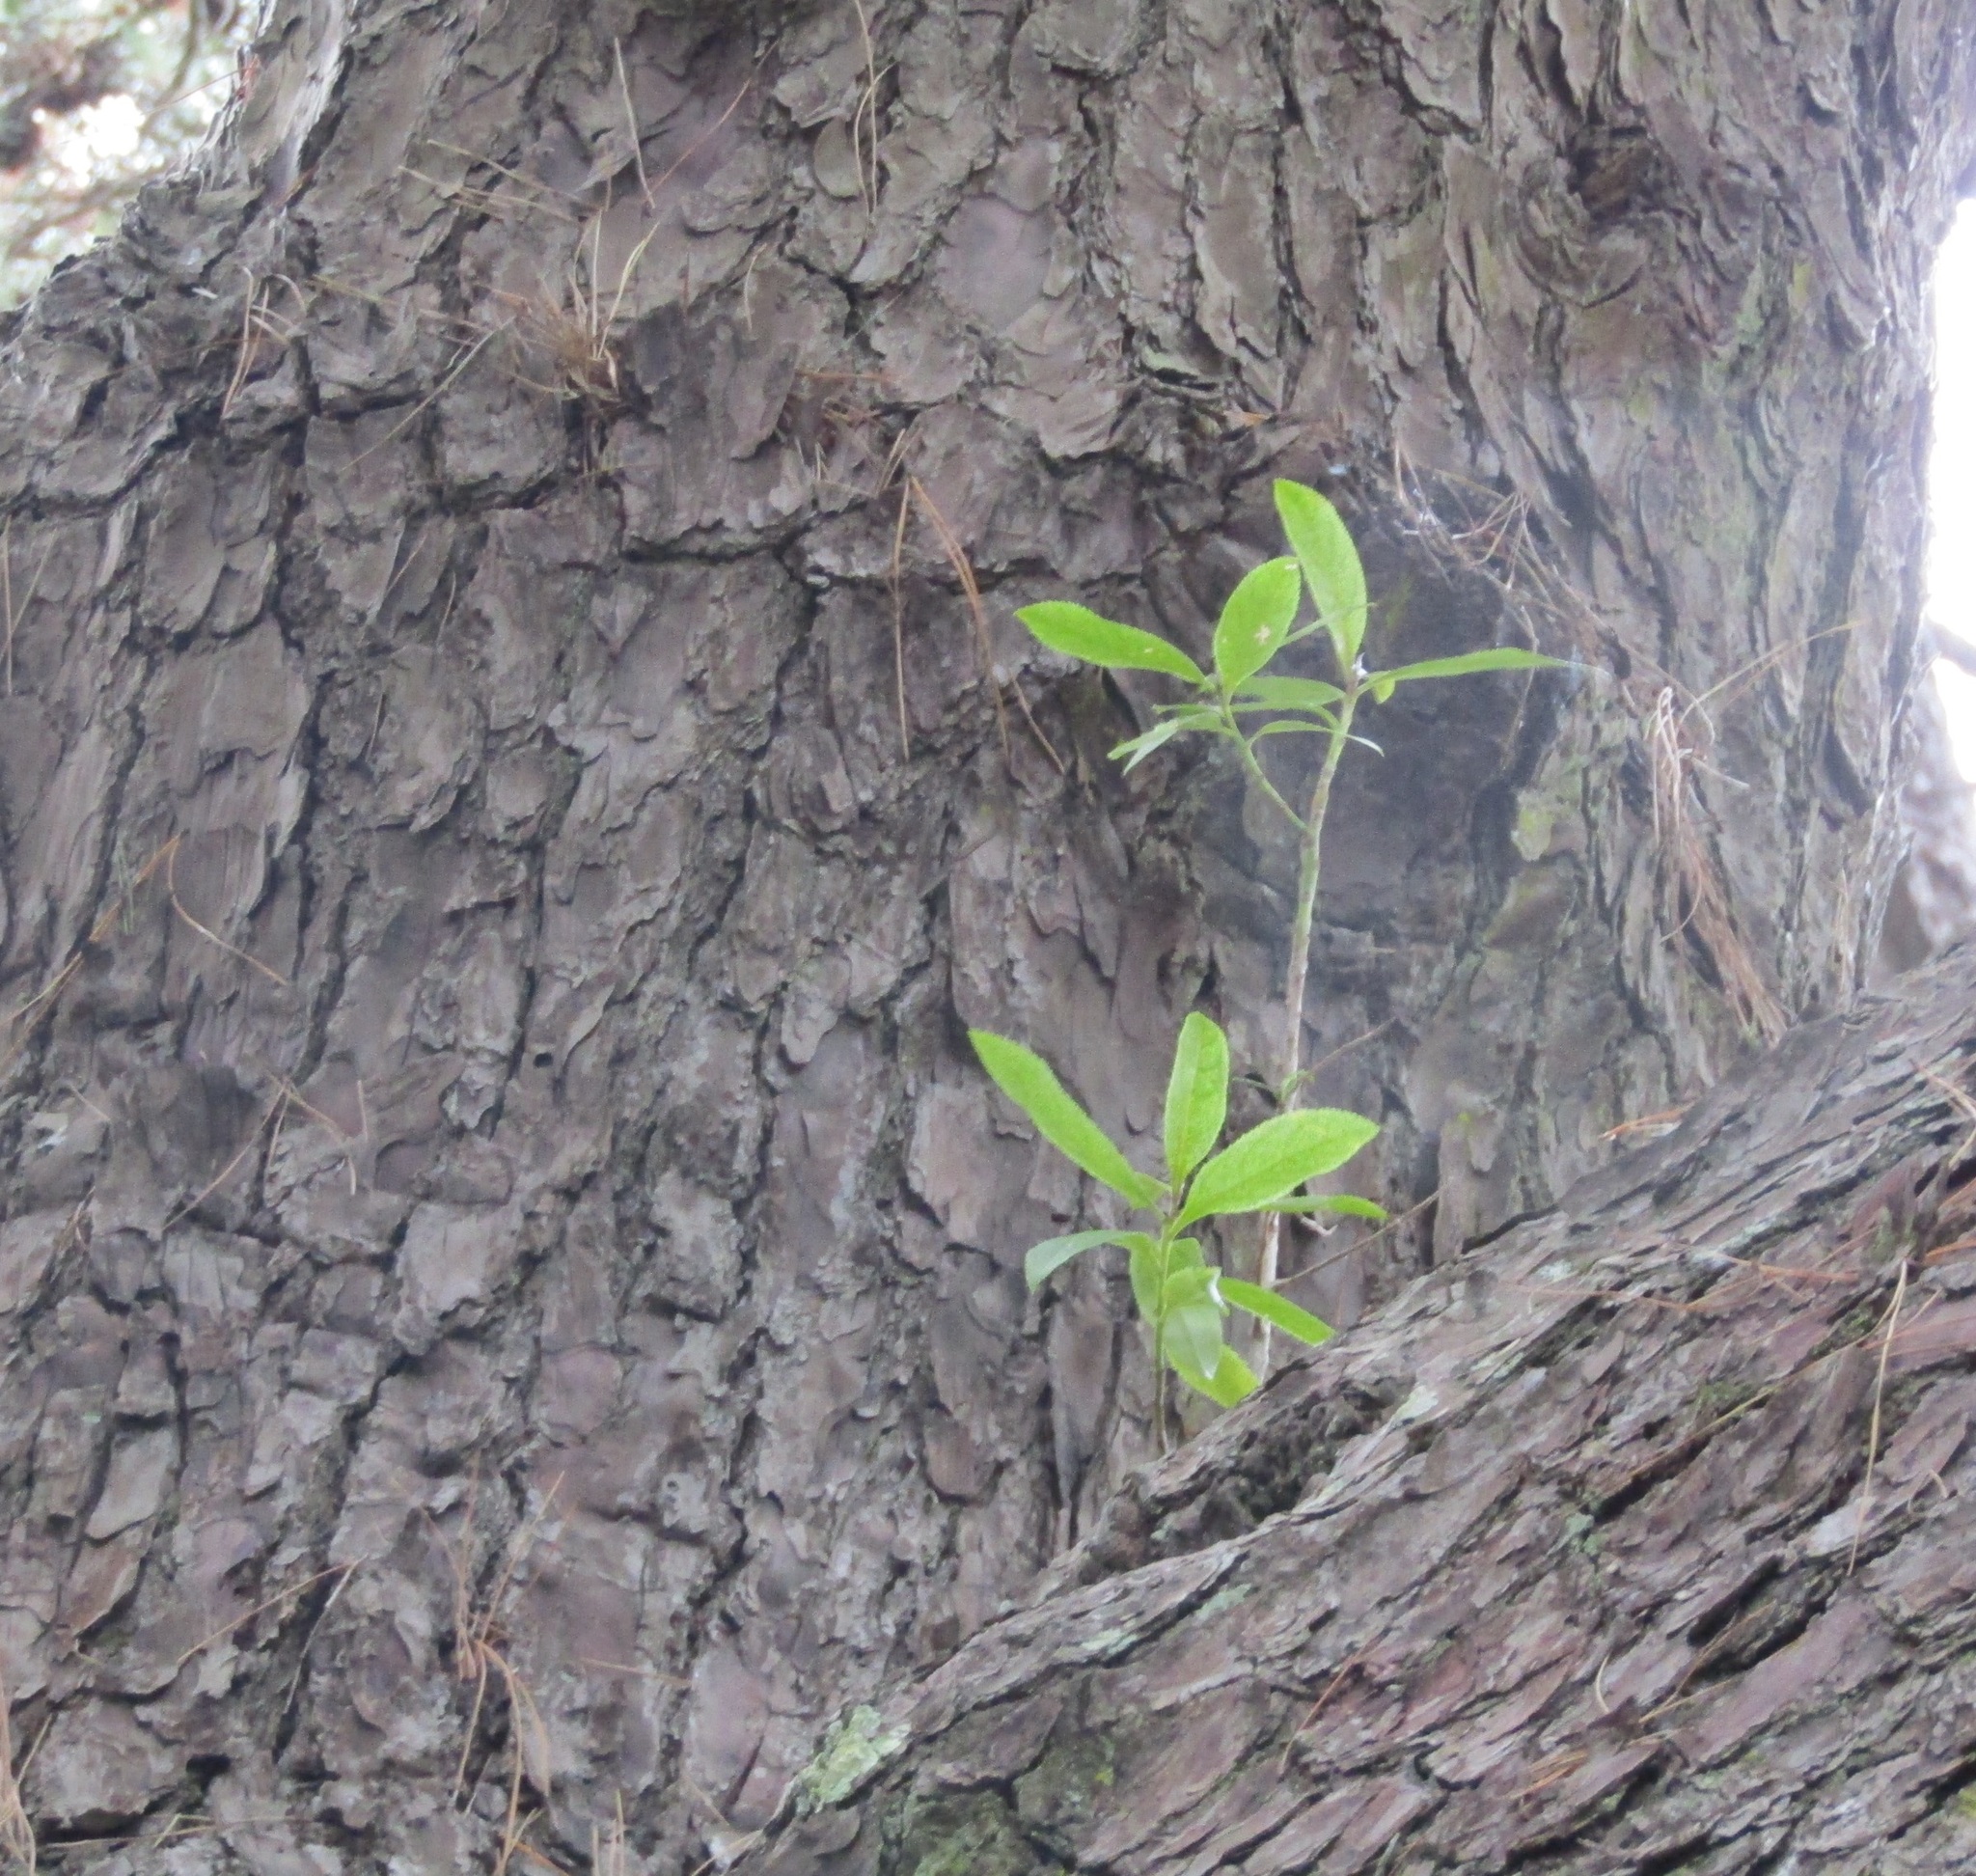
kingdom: Plantae
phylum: Tracheophyta
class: Magnoliopsida
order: Lamiales
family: Scrophulariaceae
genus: Myoporum
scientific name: Myoporum laetum
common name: Ngaio tree
